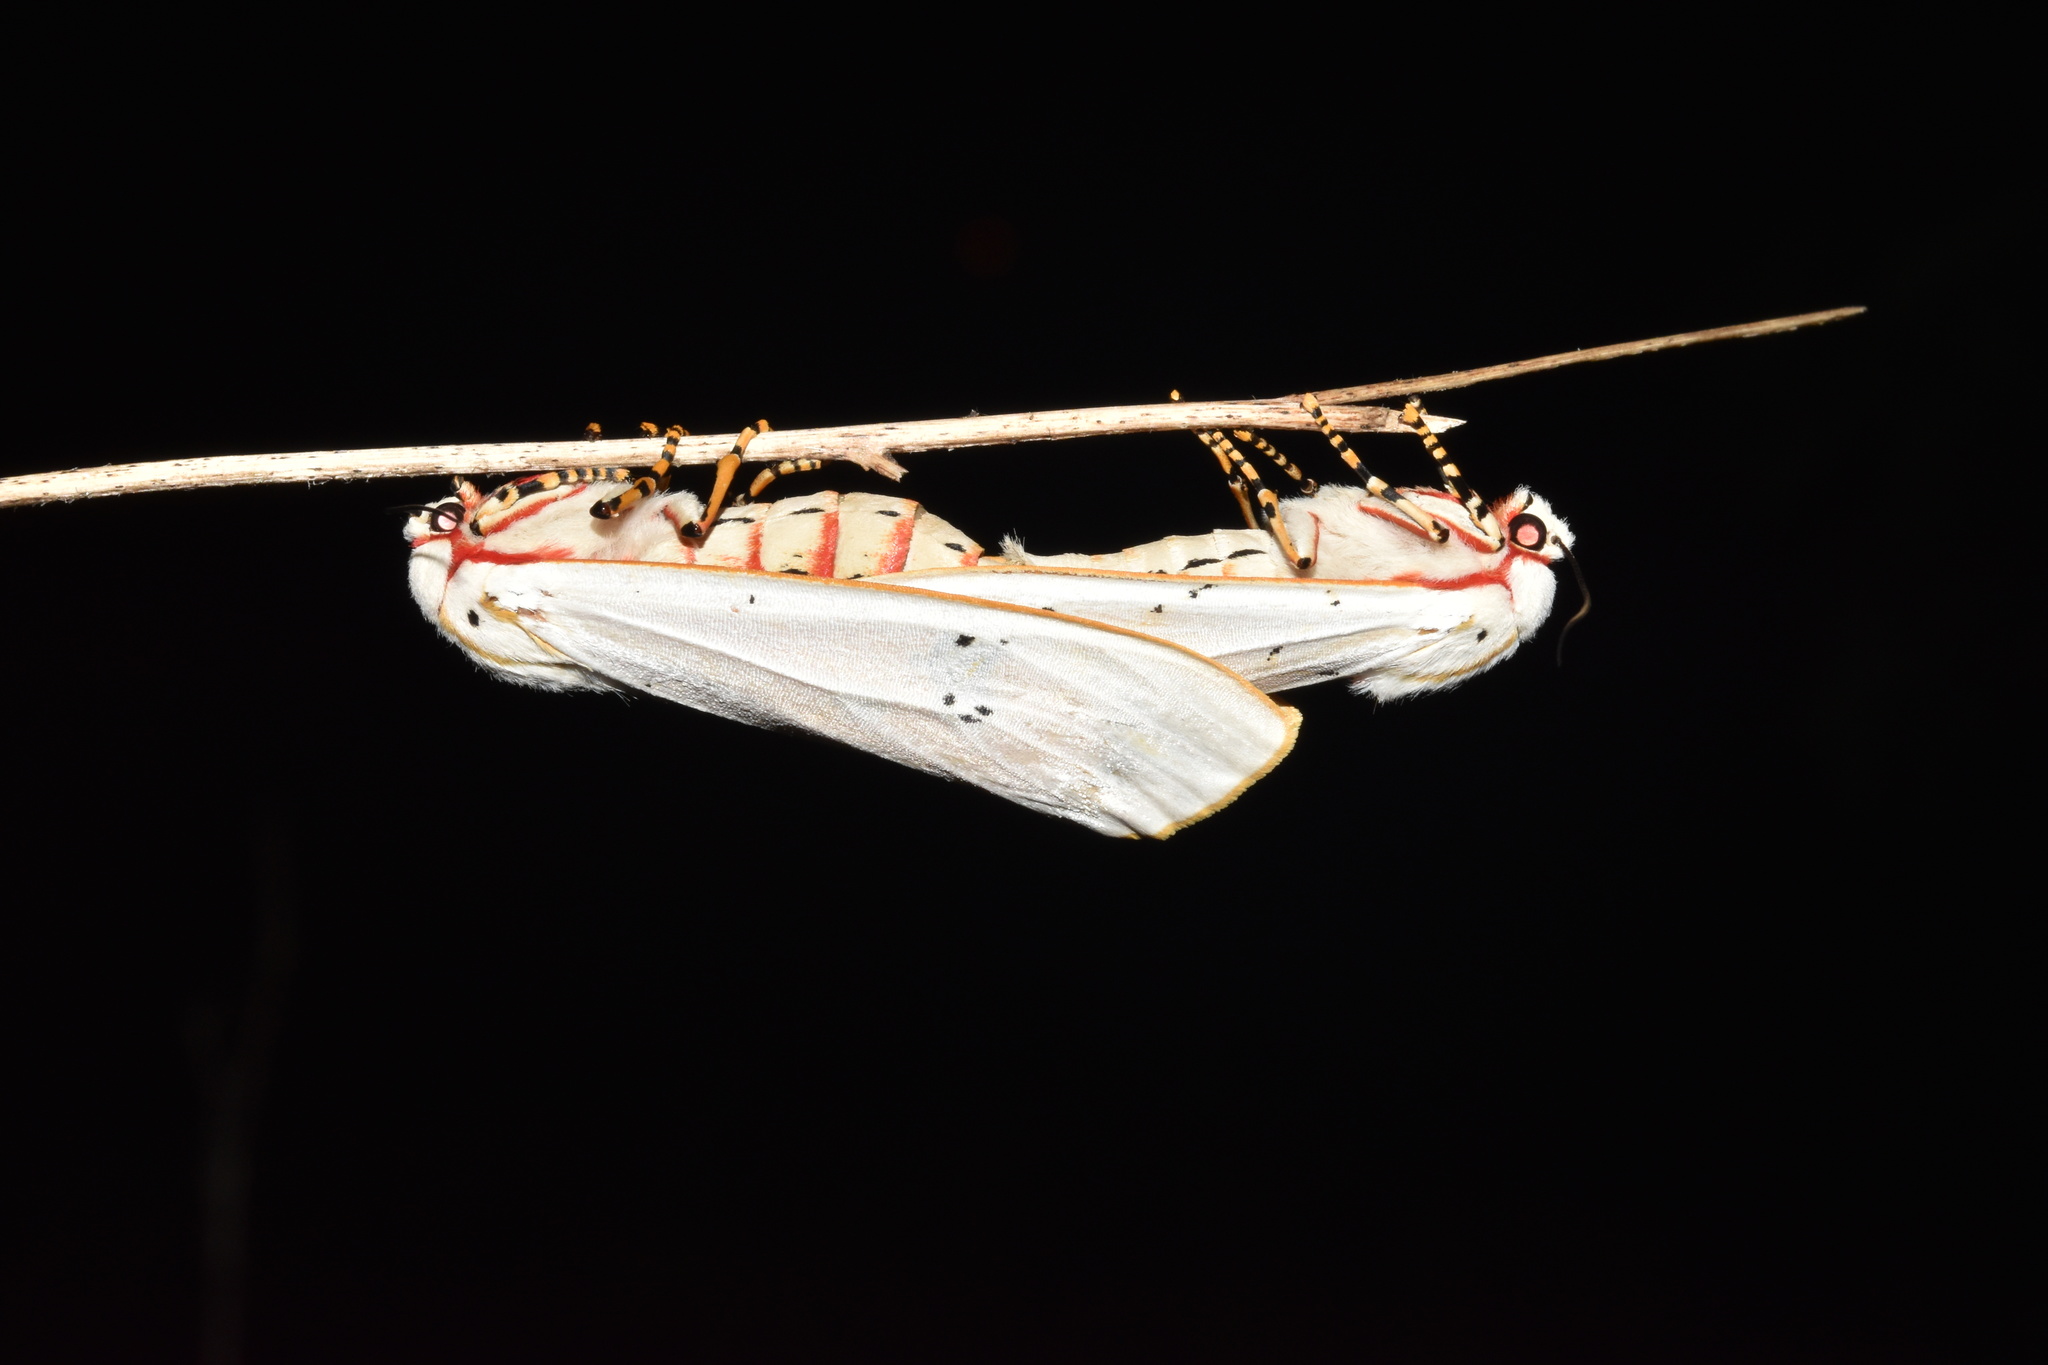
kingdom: Animalia
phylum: Arthropoda
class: Insecta
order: Lepidoptera
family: Erebidae
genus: Rhodogastria
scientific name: Rhodogastria similis
